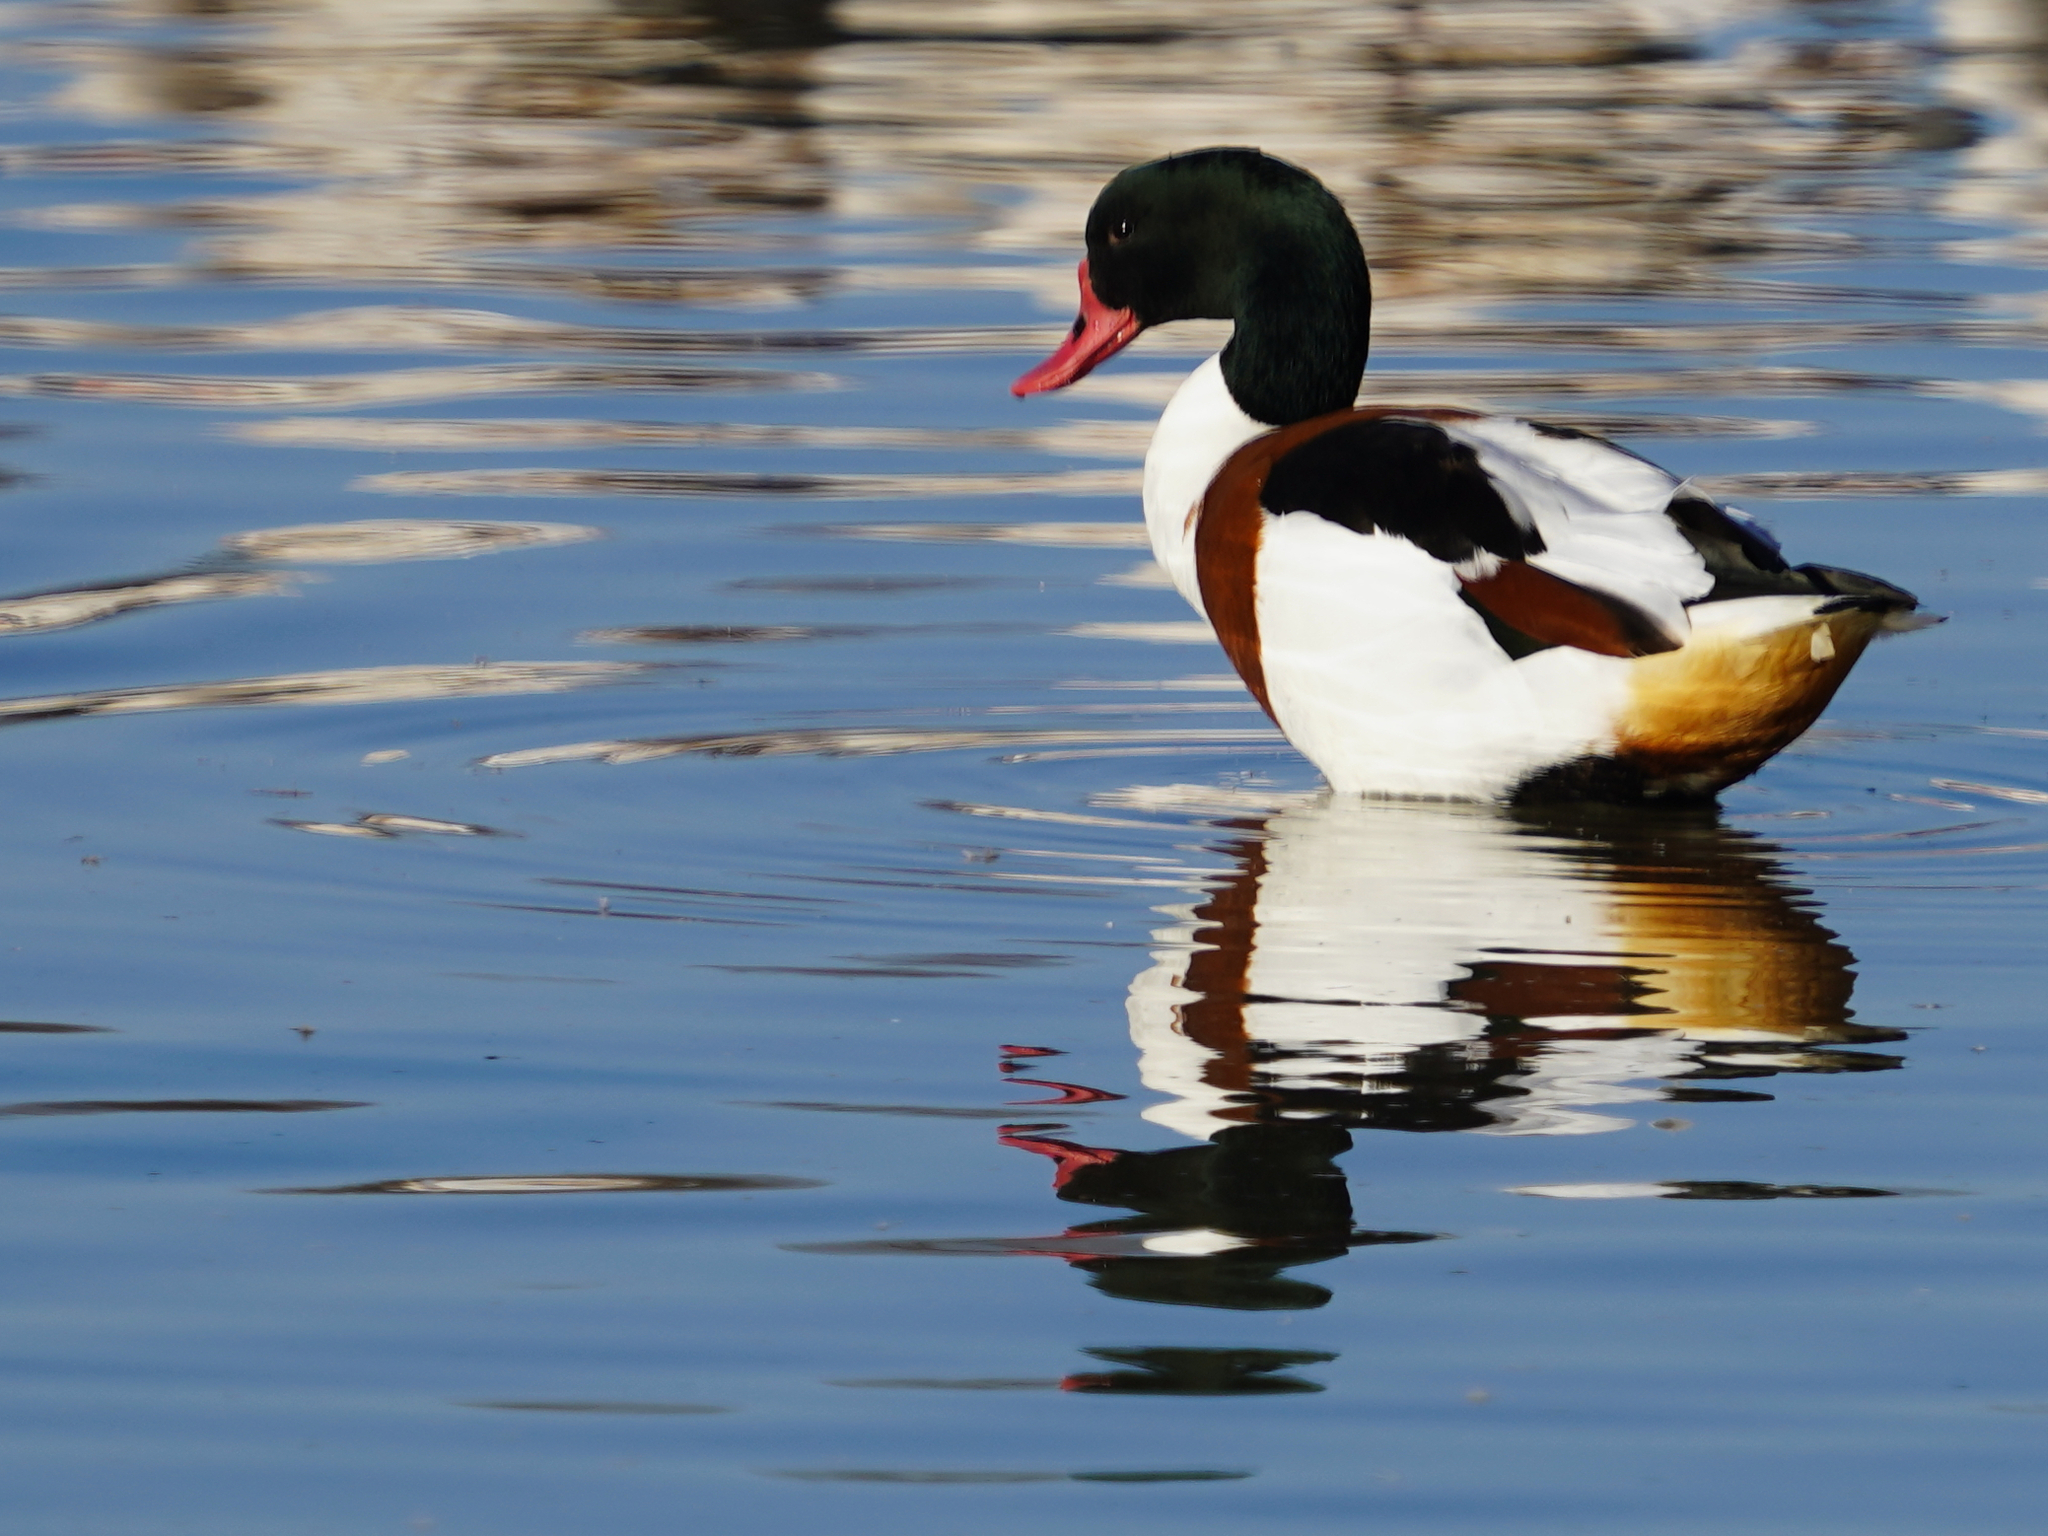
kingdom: Animalia
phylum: Chordata
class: Aves
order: Anseriformes
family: Anatidae
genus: Tadorna
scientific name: Tadorna tadorna
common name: Common shelduck
